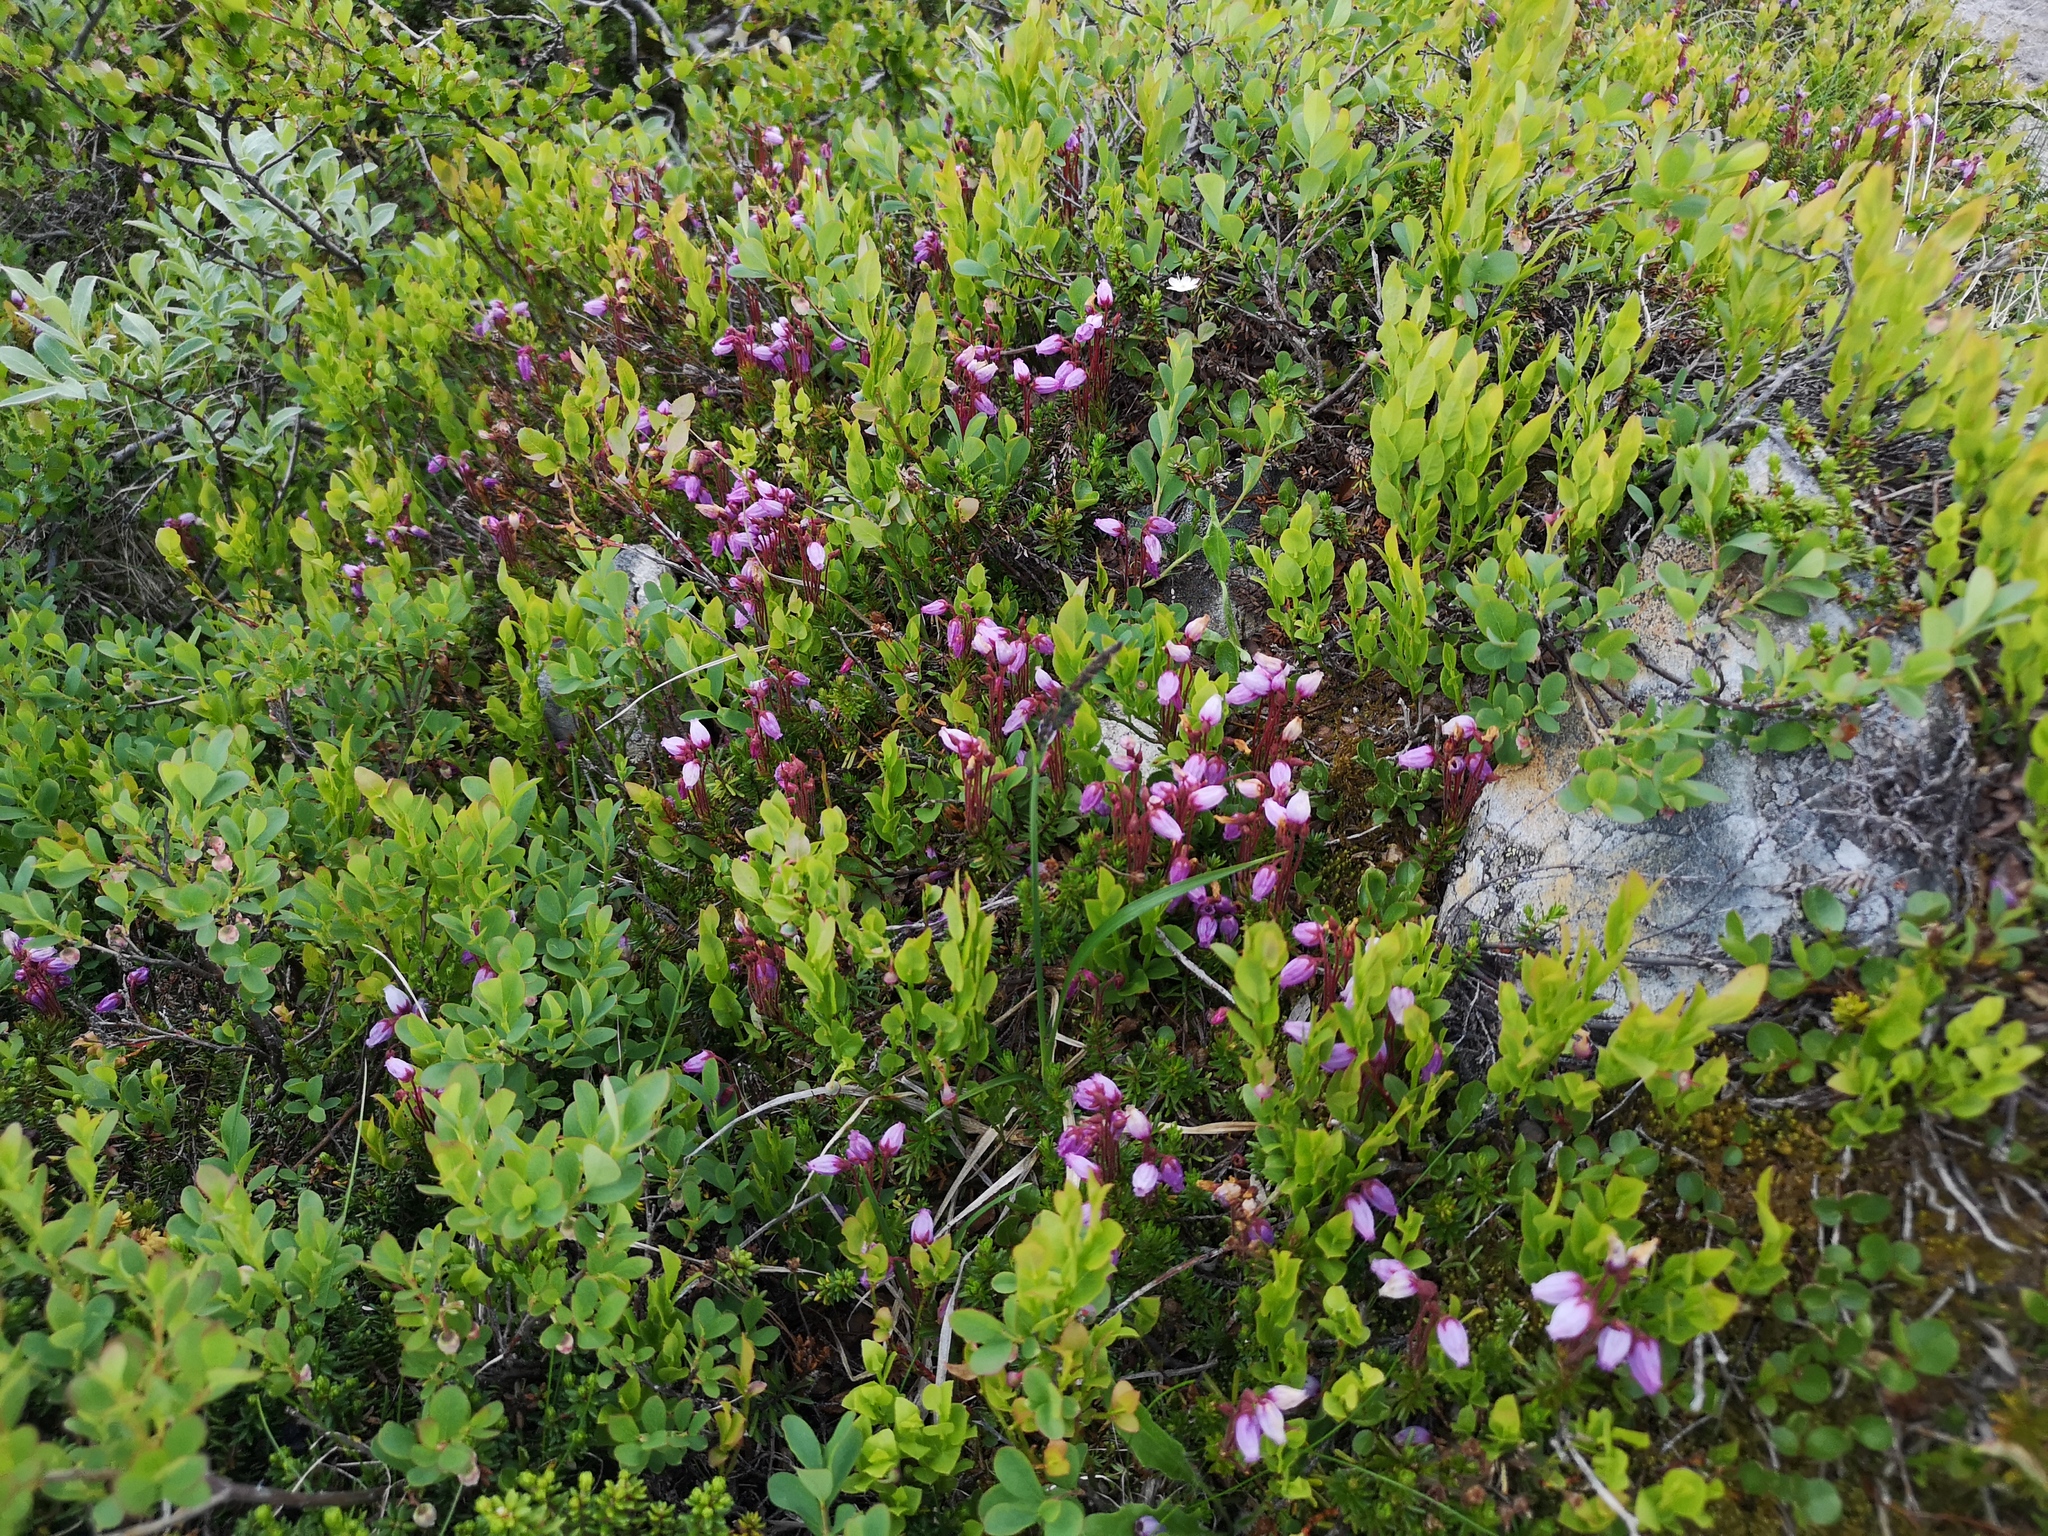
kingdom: Plantae
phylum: Tracheophyta
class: Magnoliopsida
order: Ericales
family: Ericaceae
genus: Phyllodoce
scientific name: Phyllodoce caerulea
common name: Blue heath
